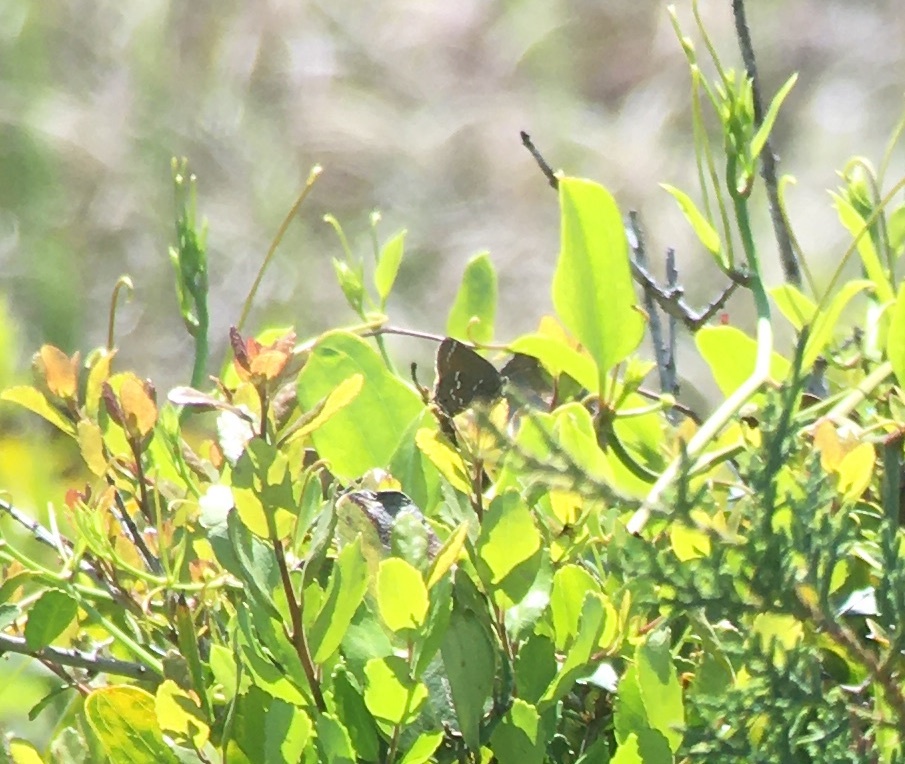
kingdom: Animalia
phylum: Arthropoda
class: Insecta
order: Lepidoptera
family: Lycaenidae
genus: Mitoura
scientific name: Mitoura gryneus
